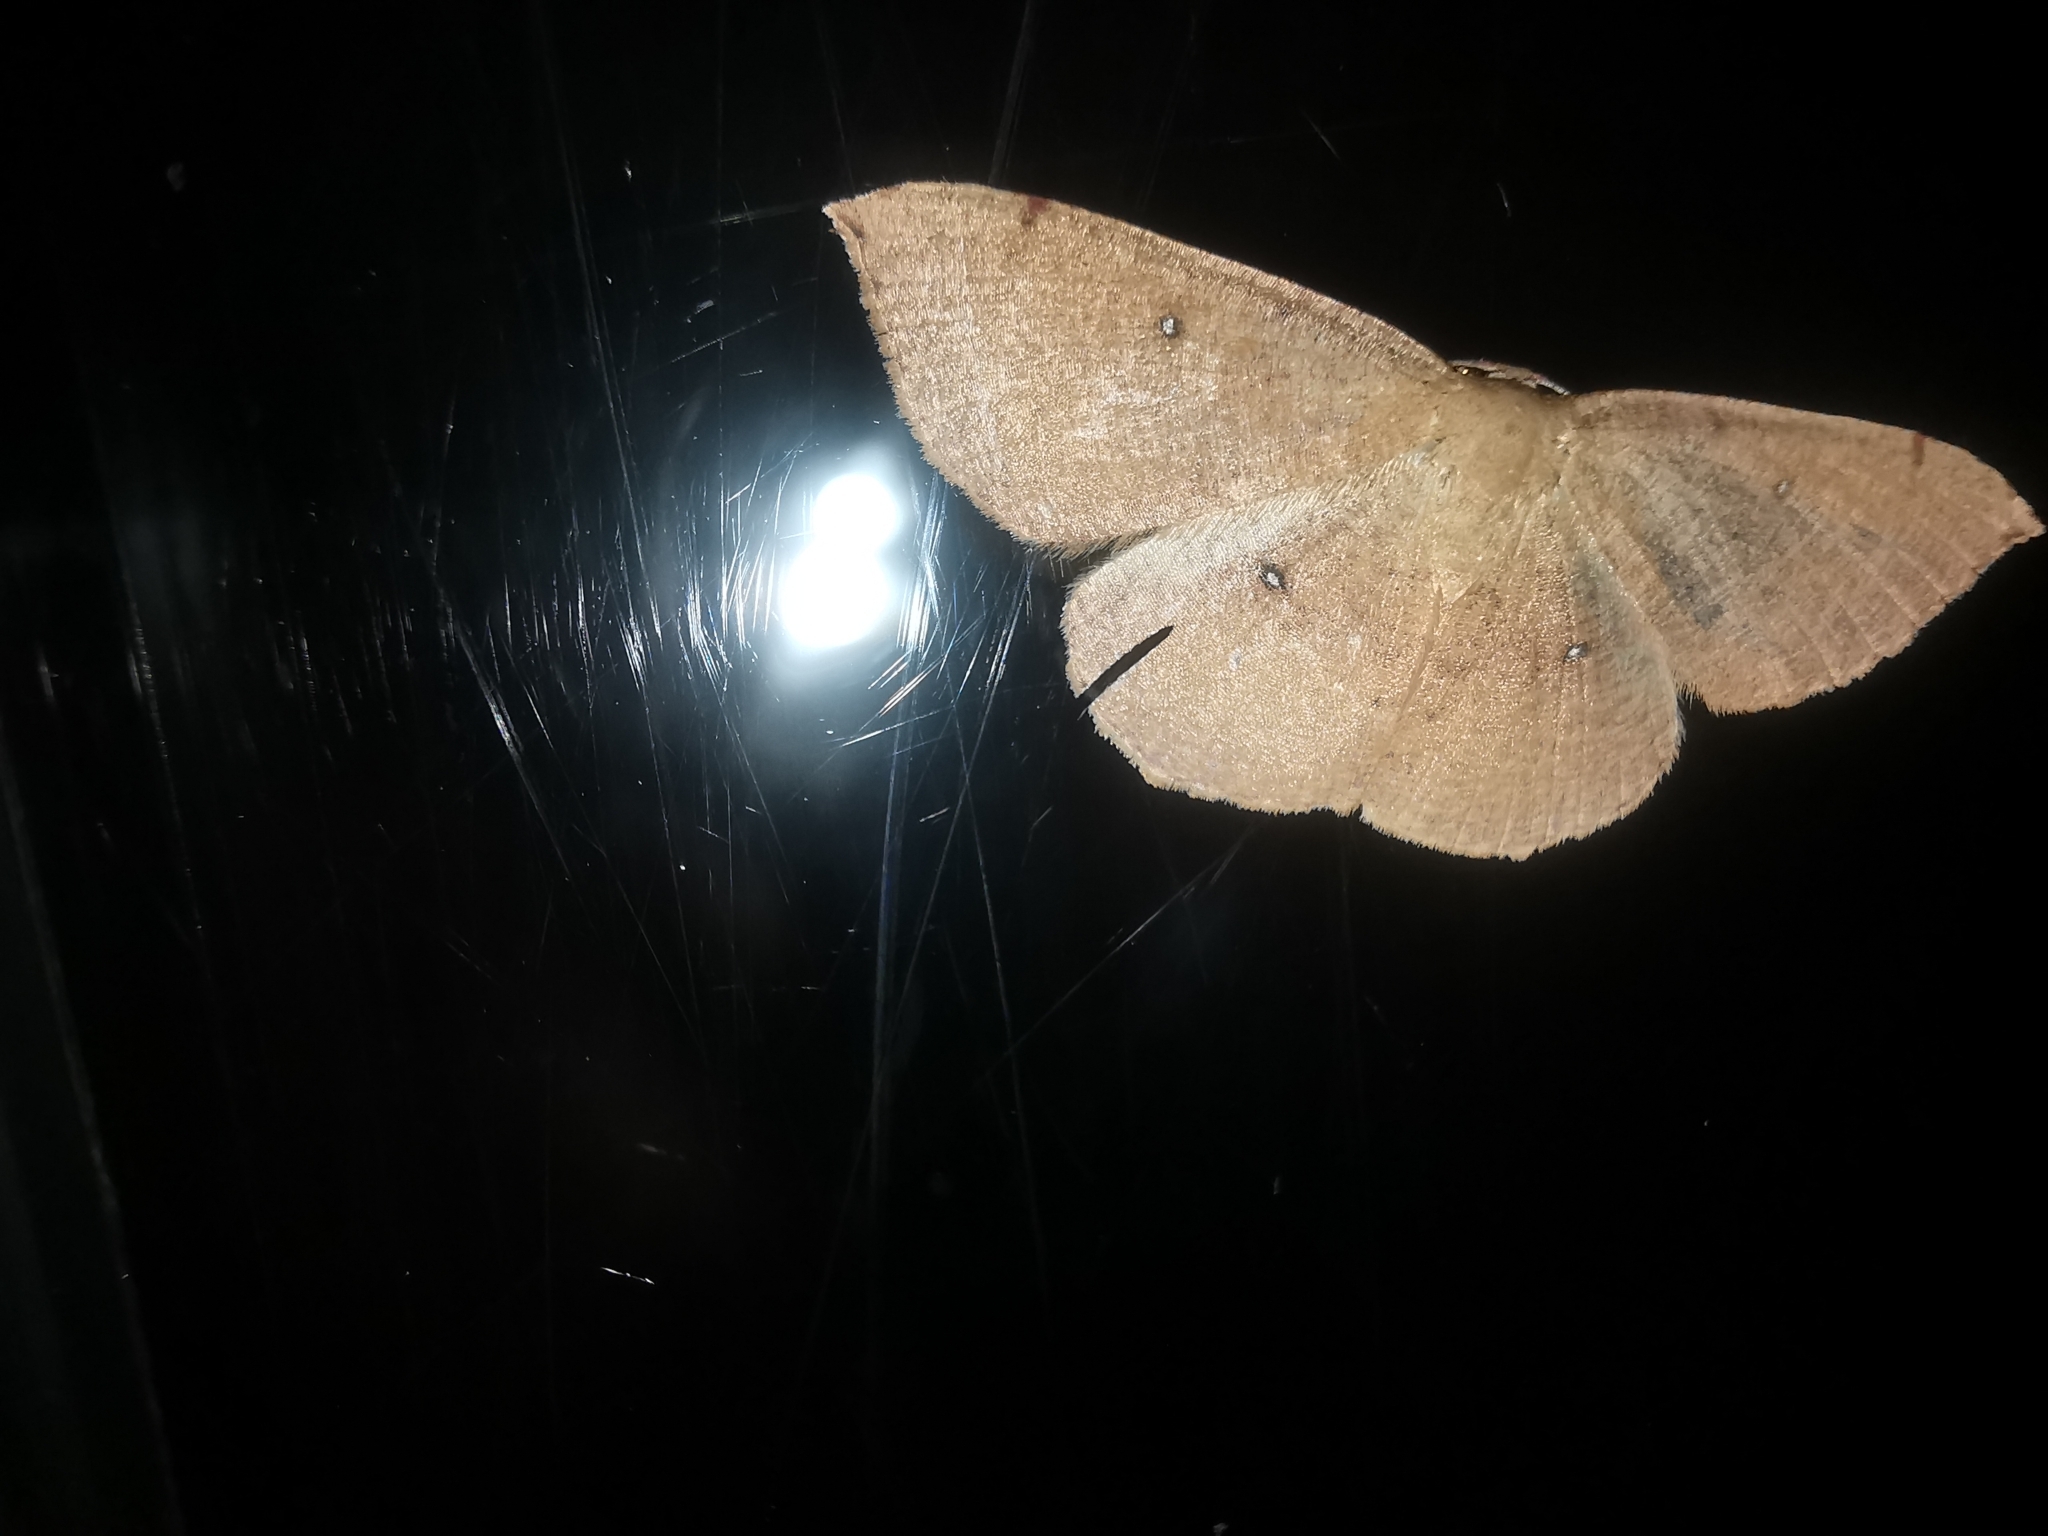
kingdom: Animalia
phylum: Arthropoda
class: Insecta
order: Lepidoptera
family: Geometridae
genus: Cyclophora
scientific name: Cyclophora puppillaria
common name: Blair's mocha
